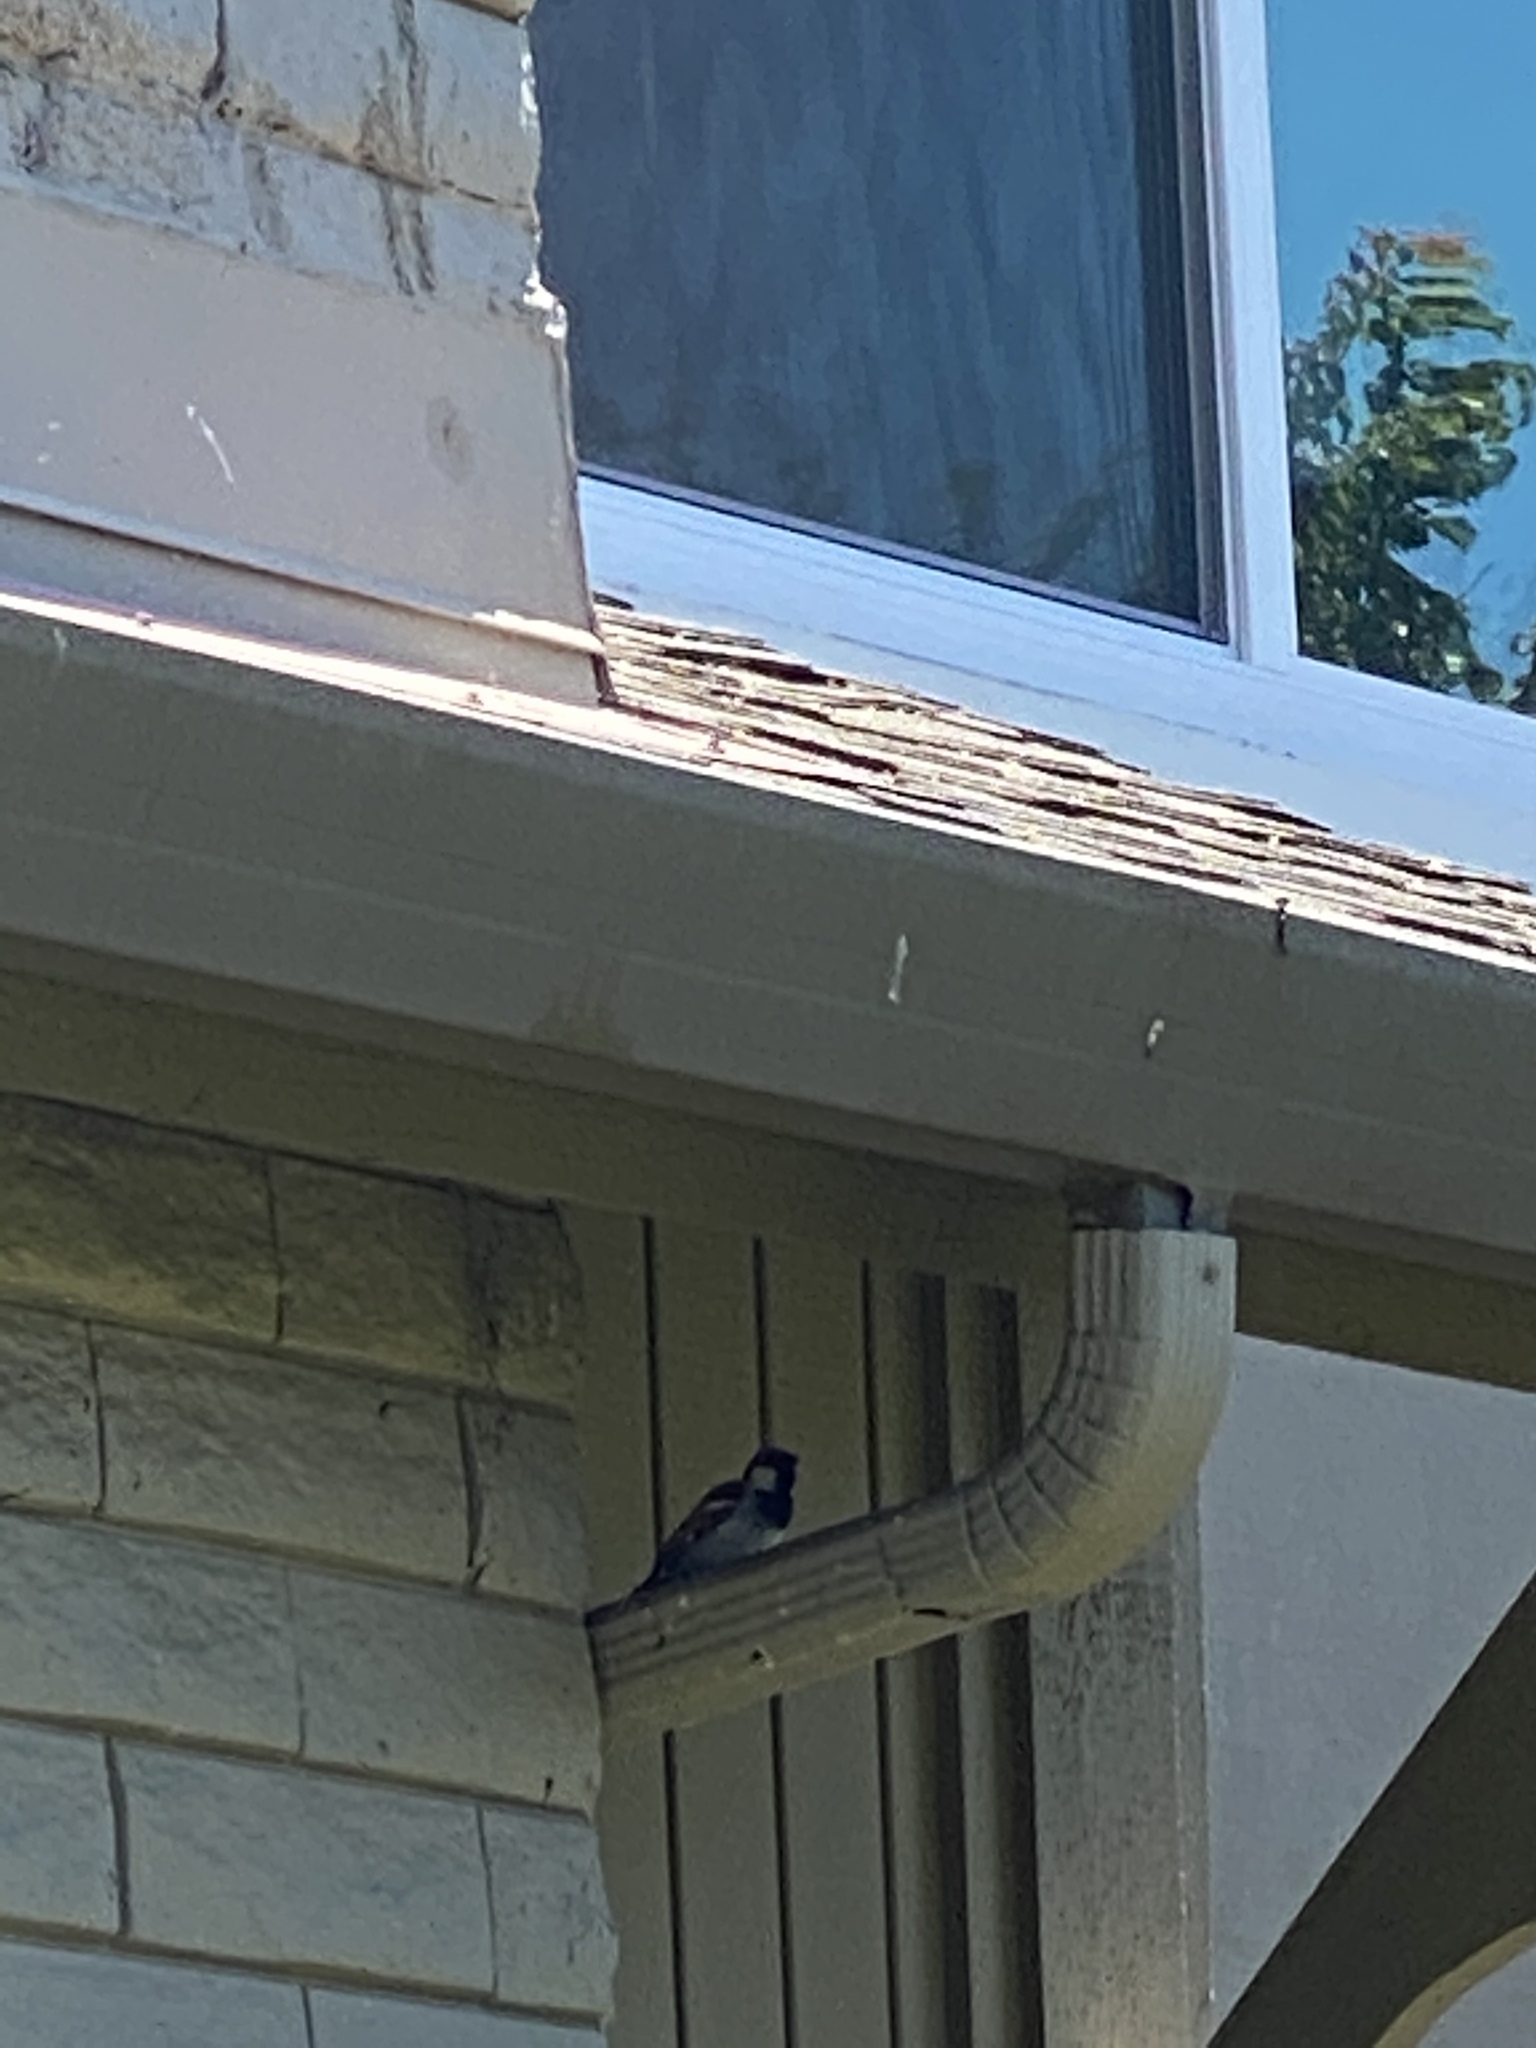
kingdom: Animalia
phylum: Chordata
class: Aves
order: Passeriformes
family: Passeridae
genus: Passer
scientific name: Passer domesticus
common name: House sparrow
